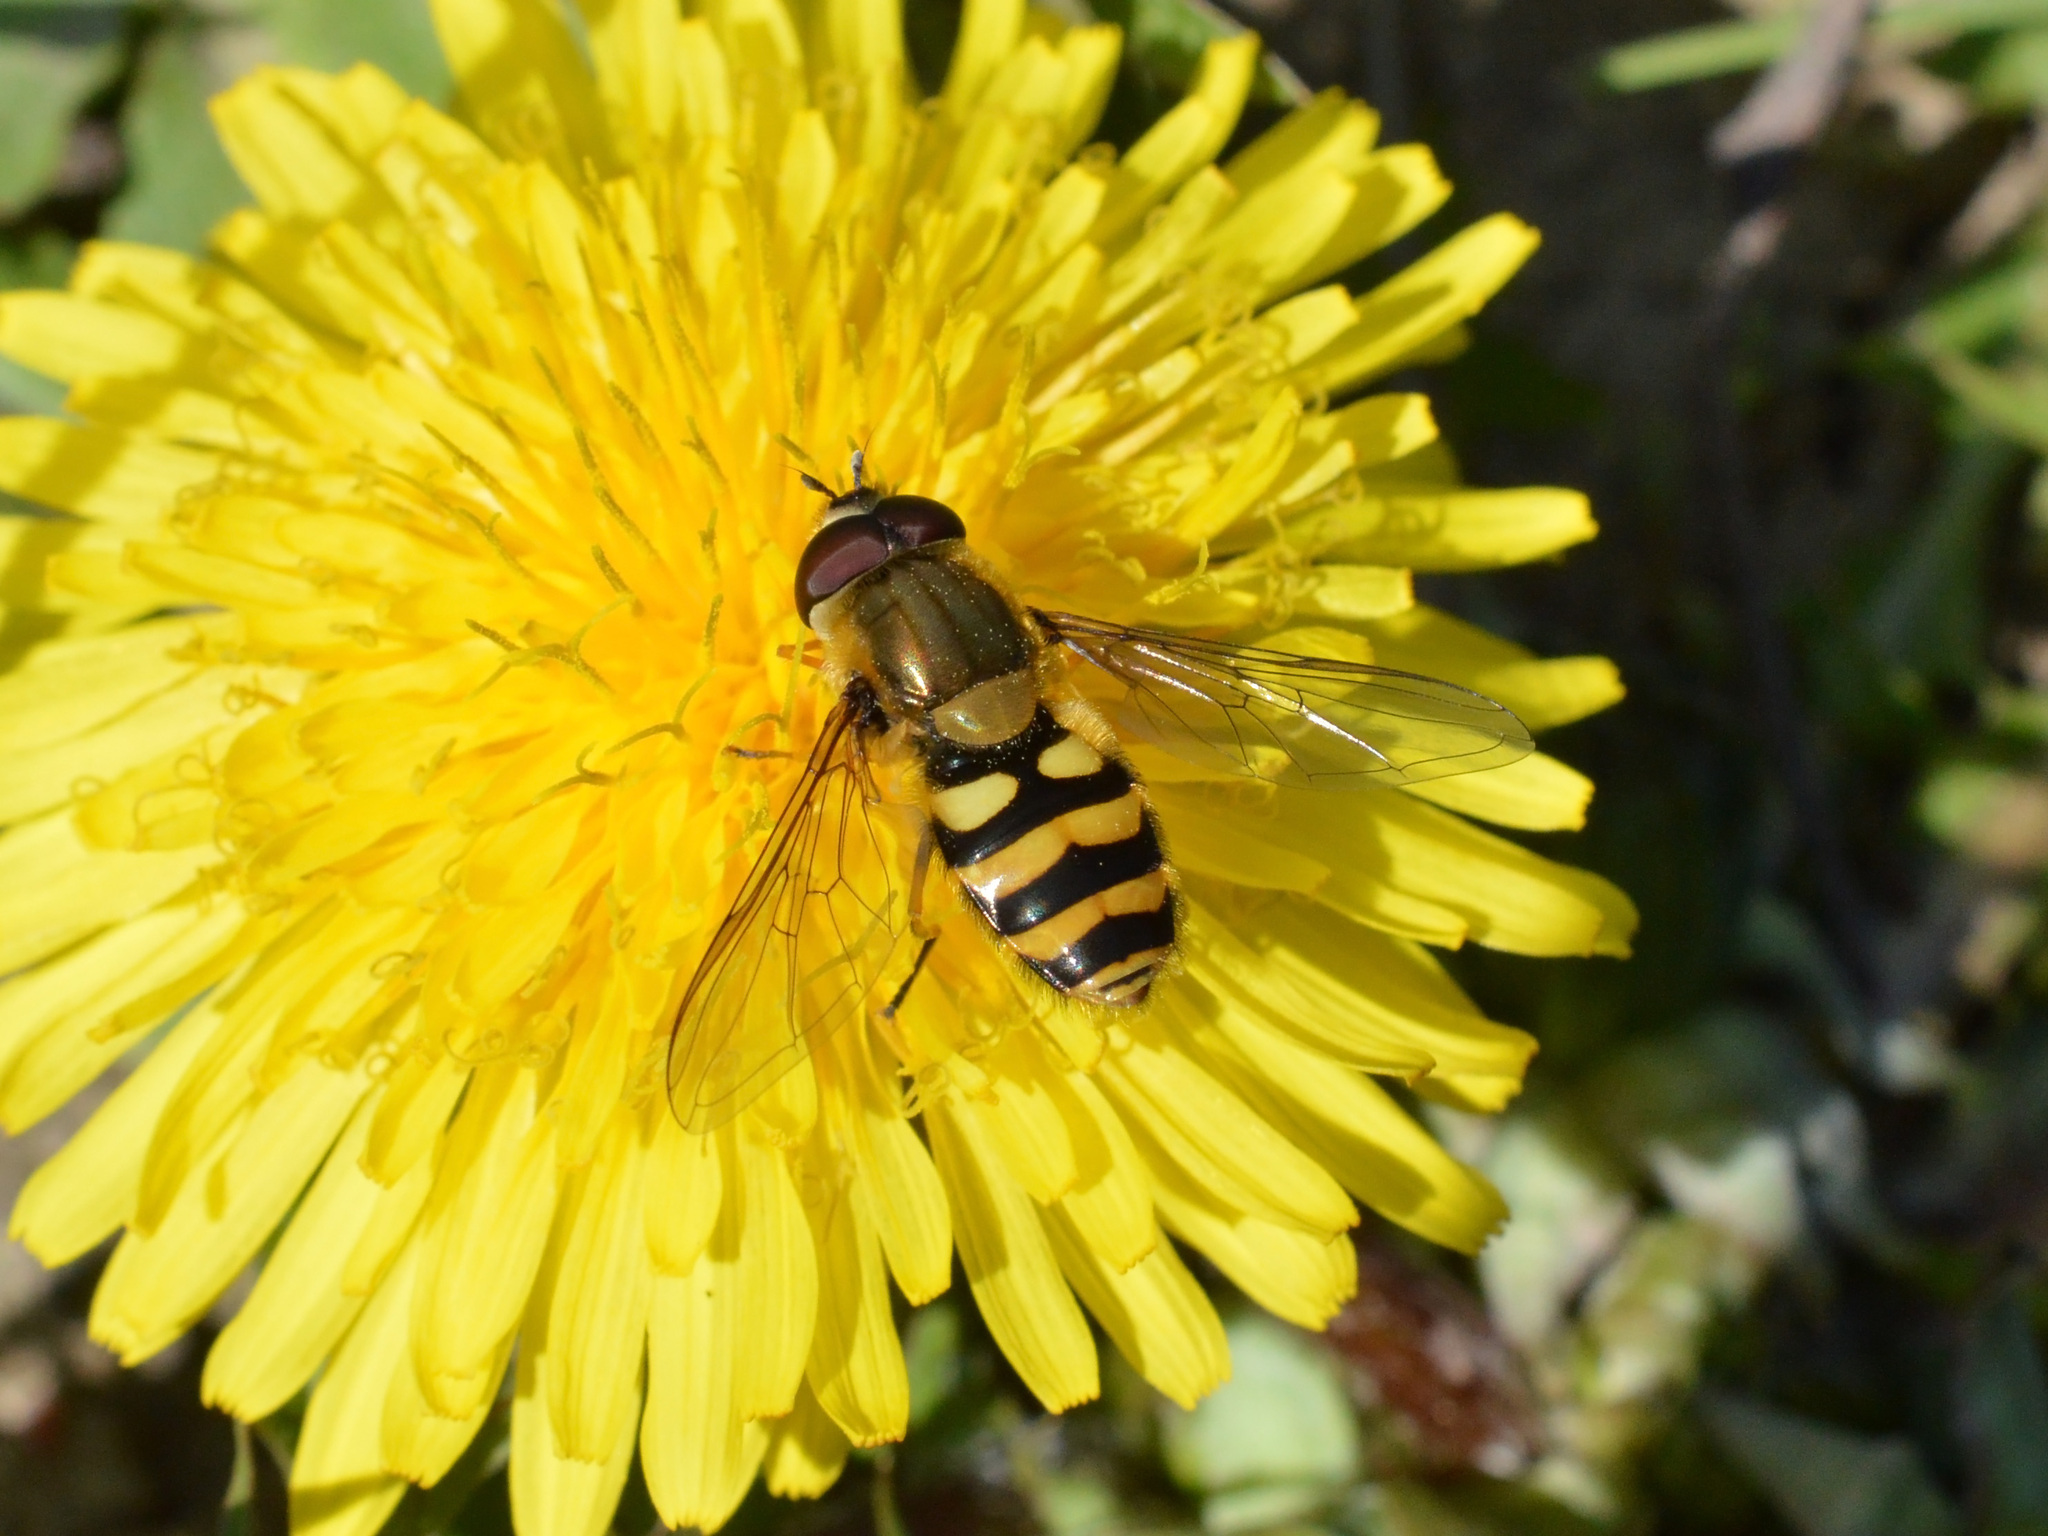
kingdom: Animalia
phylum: Arthropoda
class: Insecta
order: Diptera
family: Syrphidae
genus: Syrphus
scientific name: Syrphus
